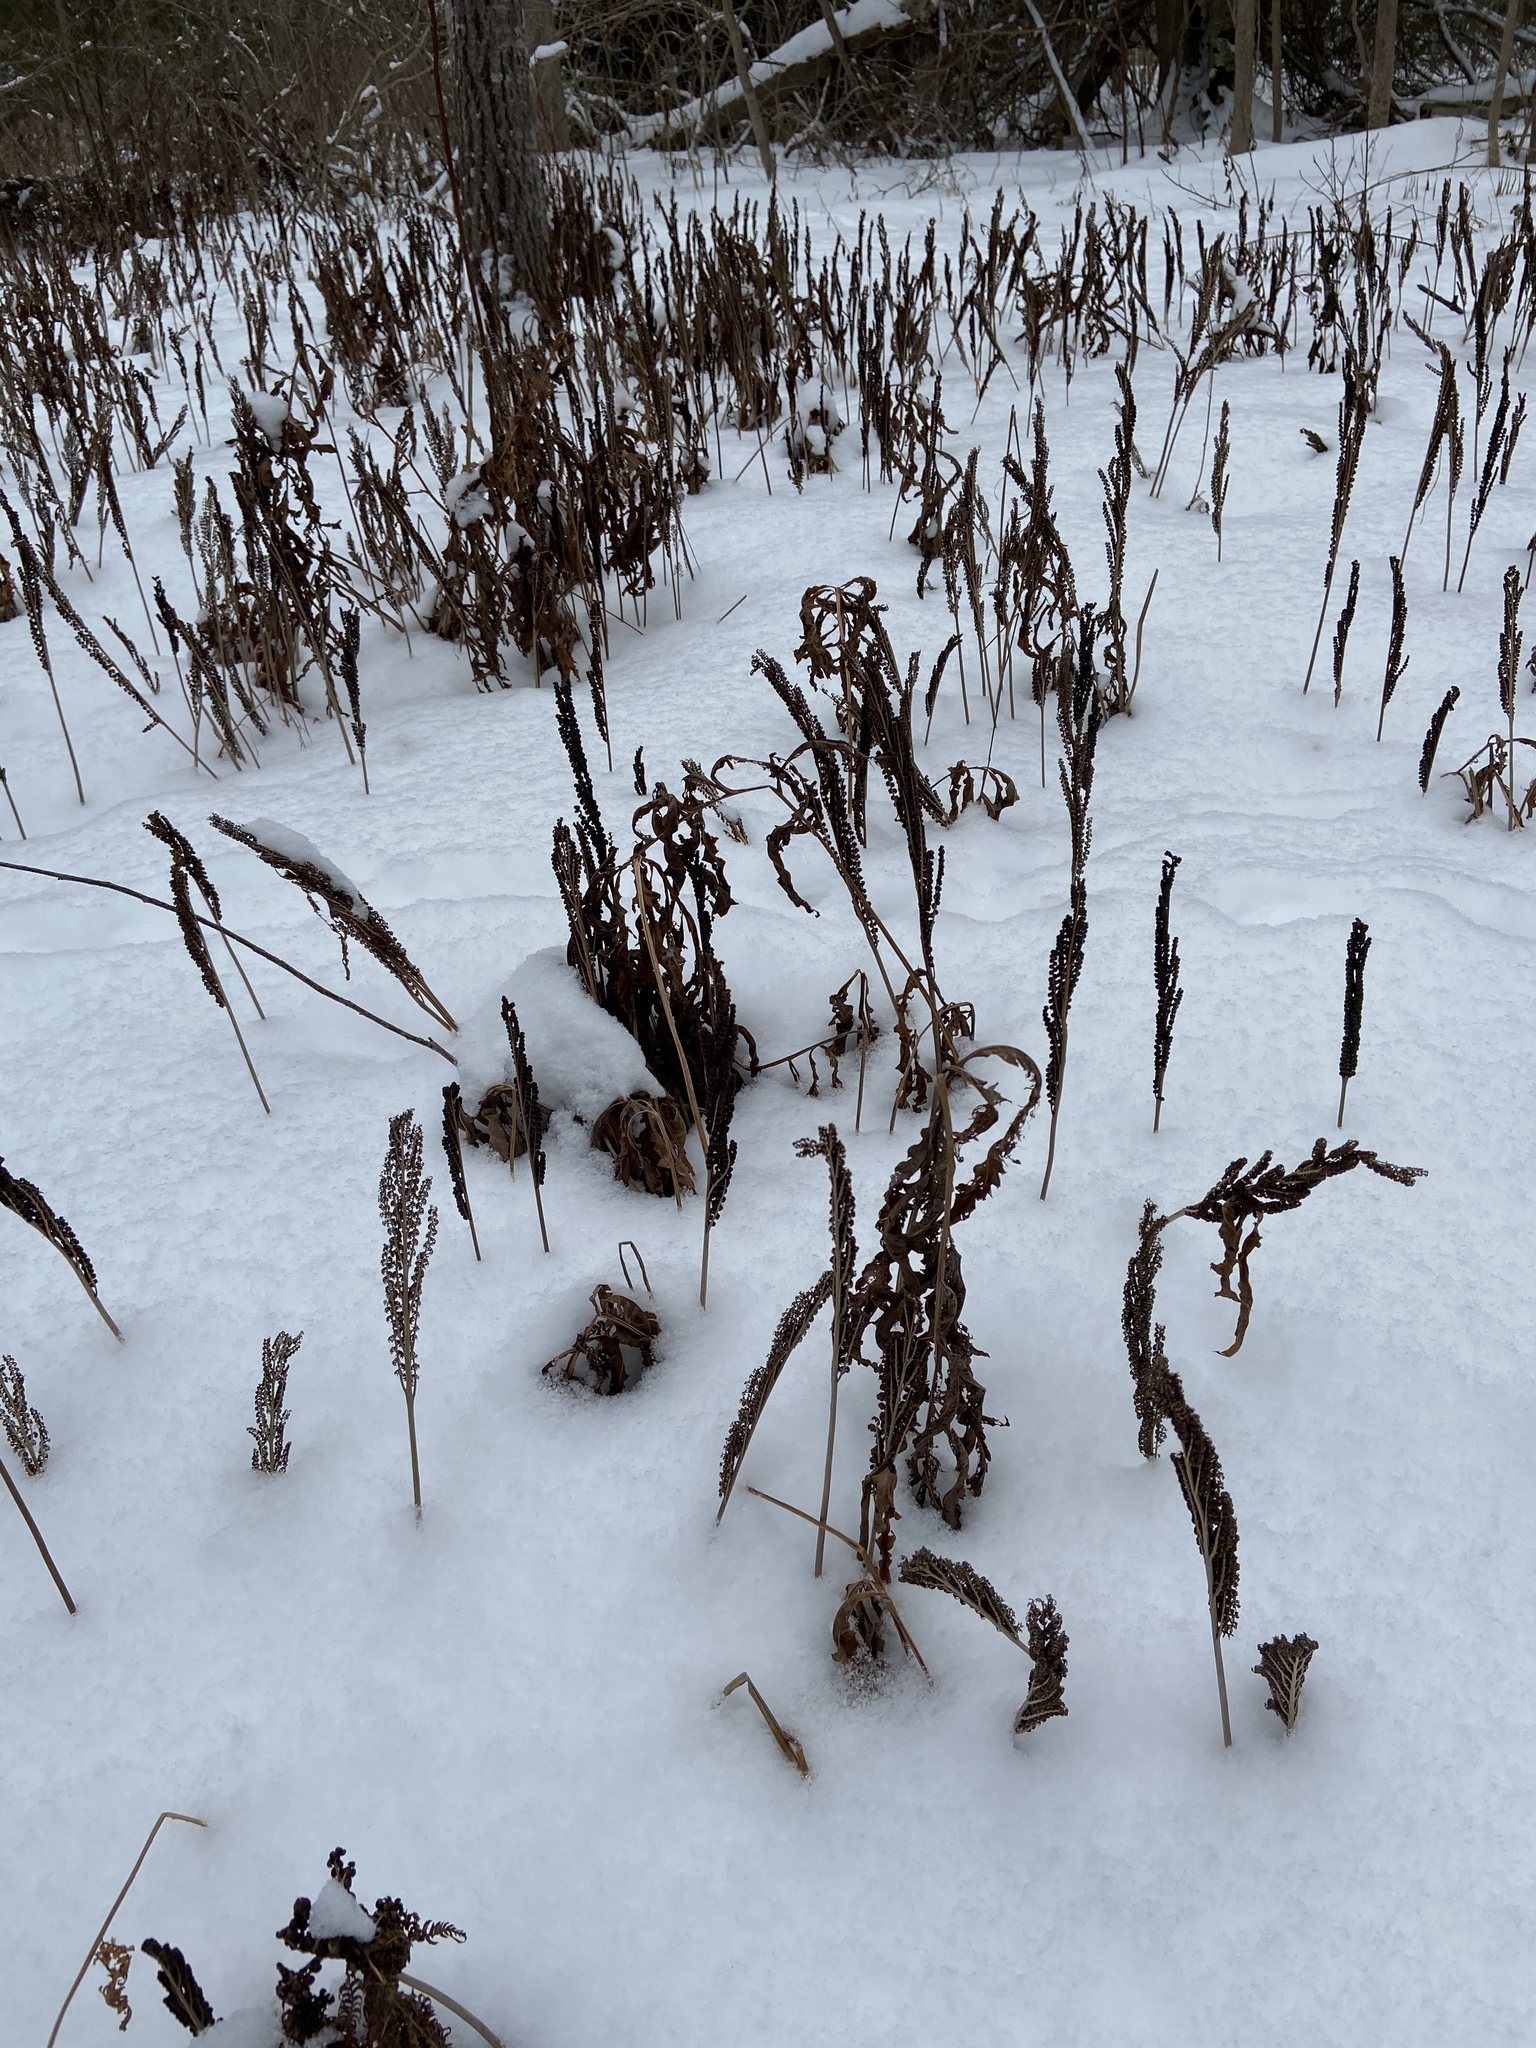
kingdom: Plantae
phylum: Tracheophyta
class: Polypodiopsida
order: Polypodiales
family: Onocleaceae
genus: Onoclea
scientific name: Onoclea sensibilis
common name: Sensitive fern
